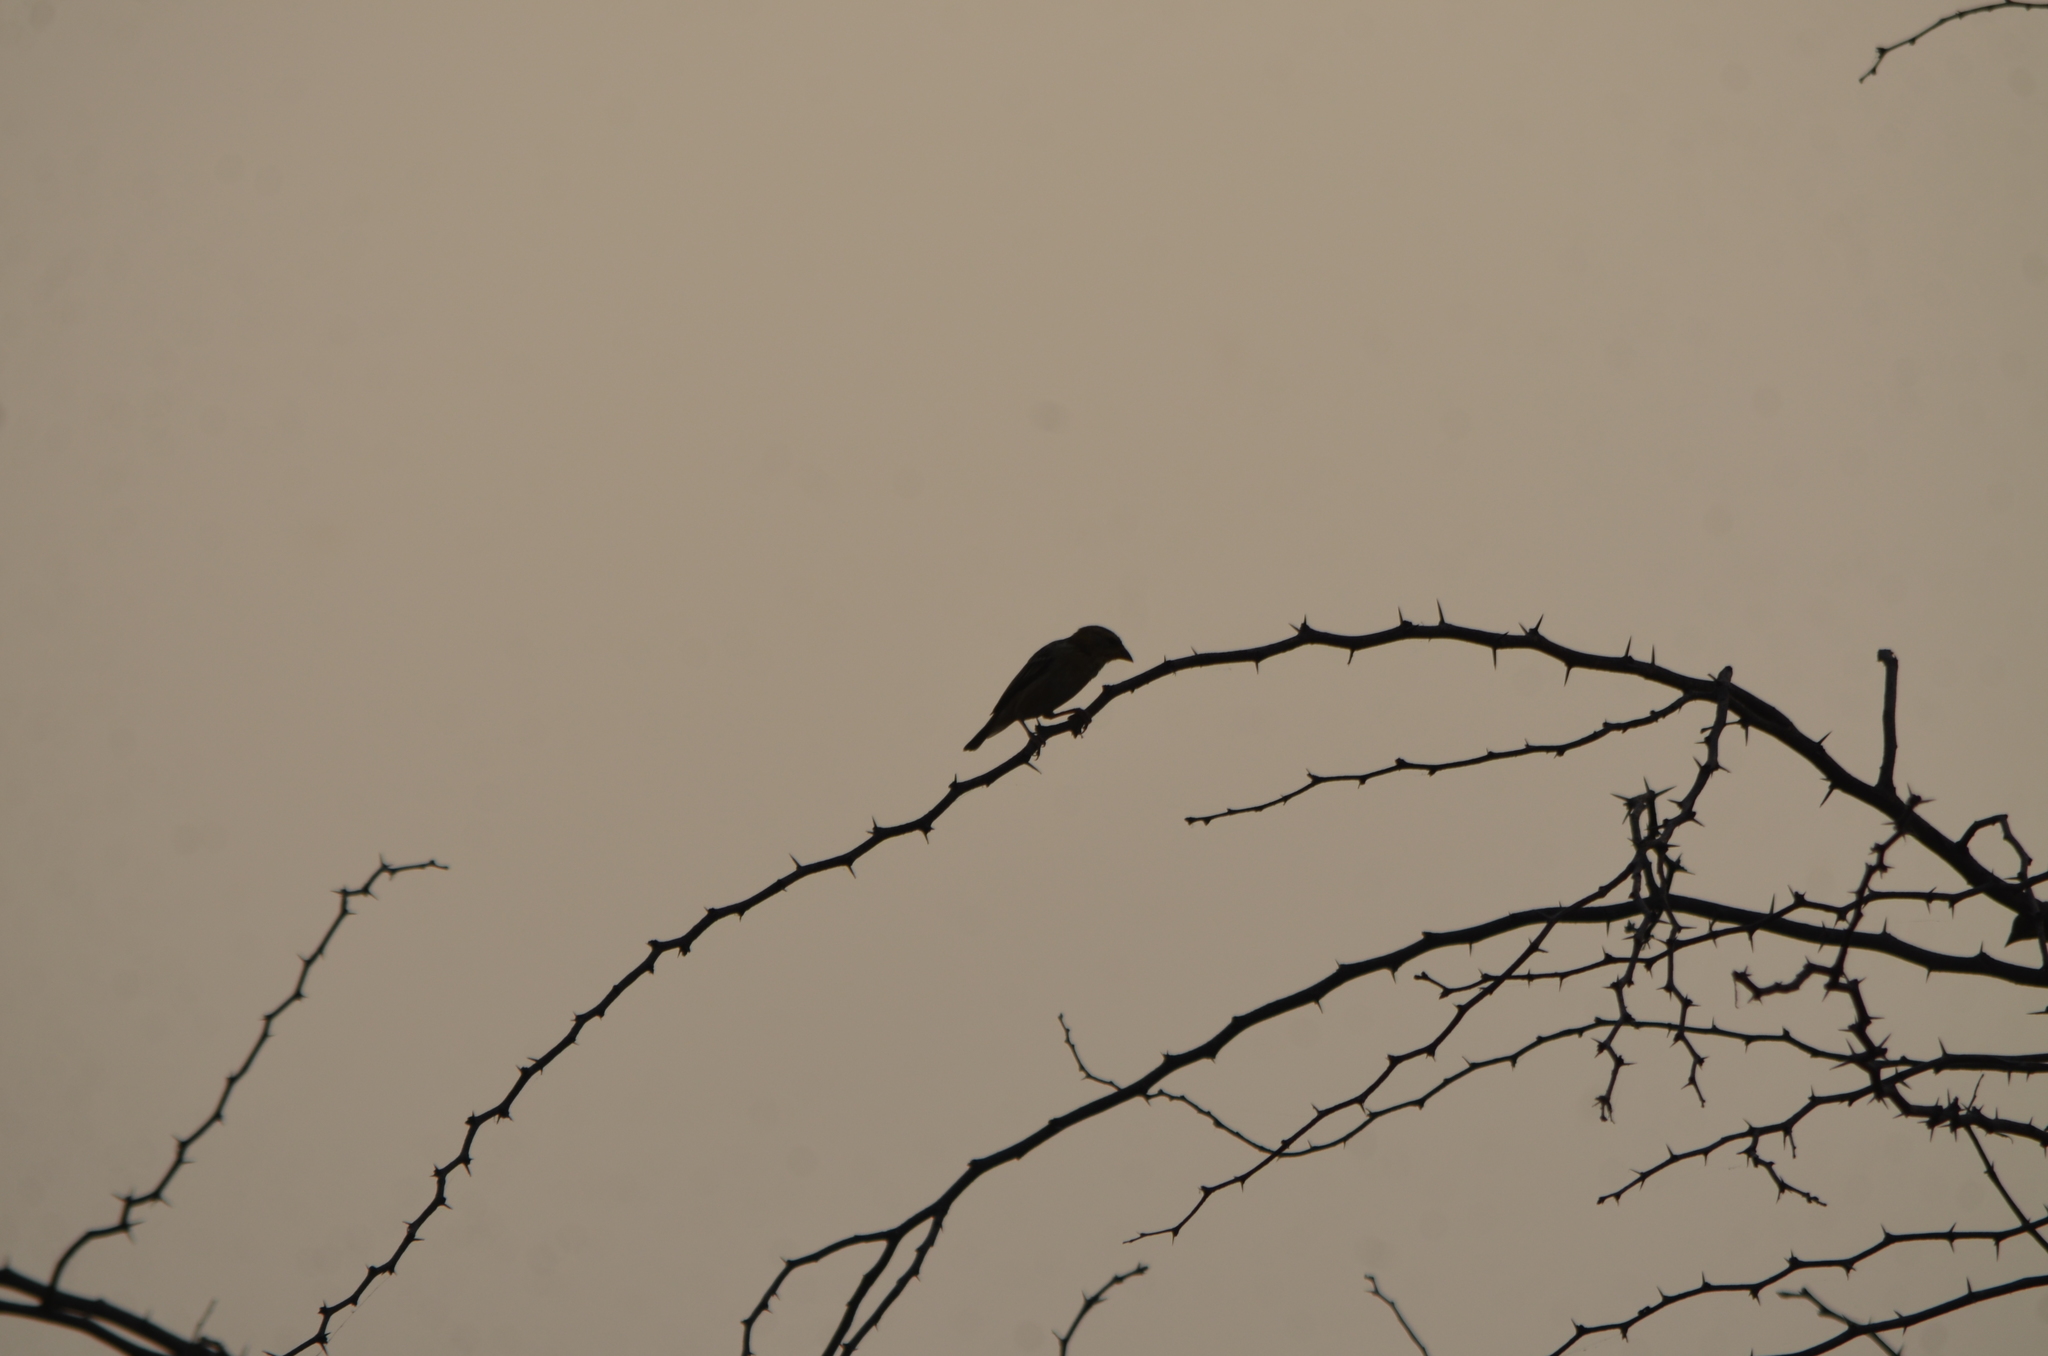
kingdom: Animalia
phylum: Chordata
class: Aves
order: Passeriformes
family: Ploceidae
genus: Ploceus
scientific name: Ploceus philippinus
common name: Baya weaver
